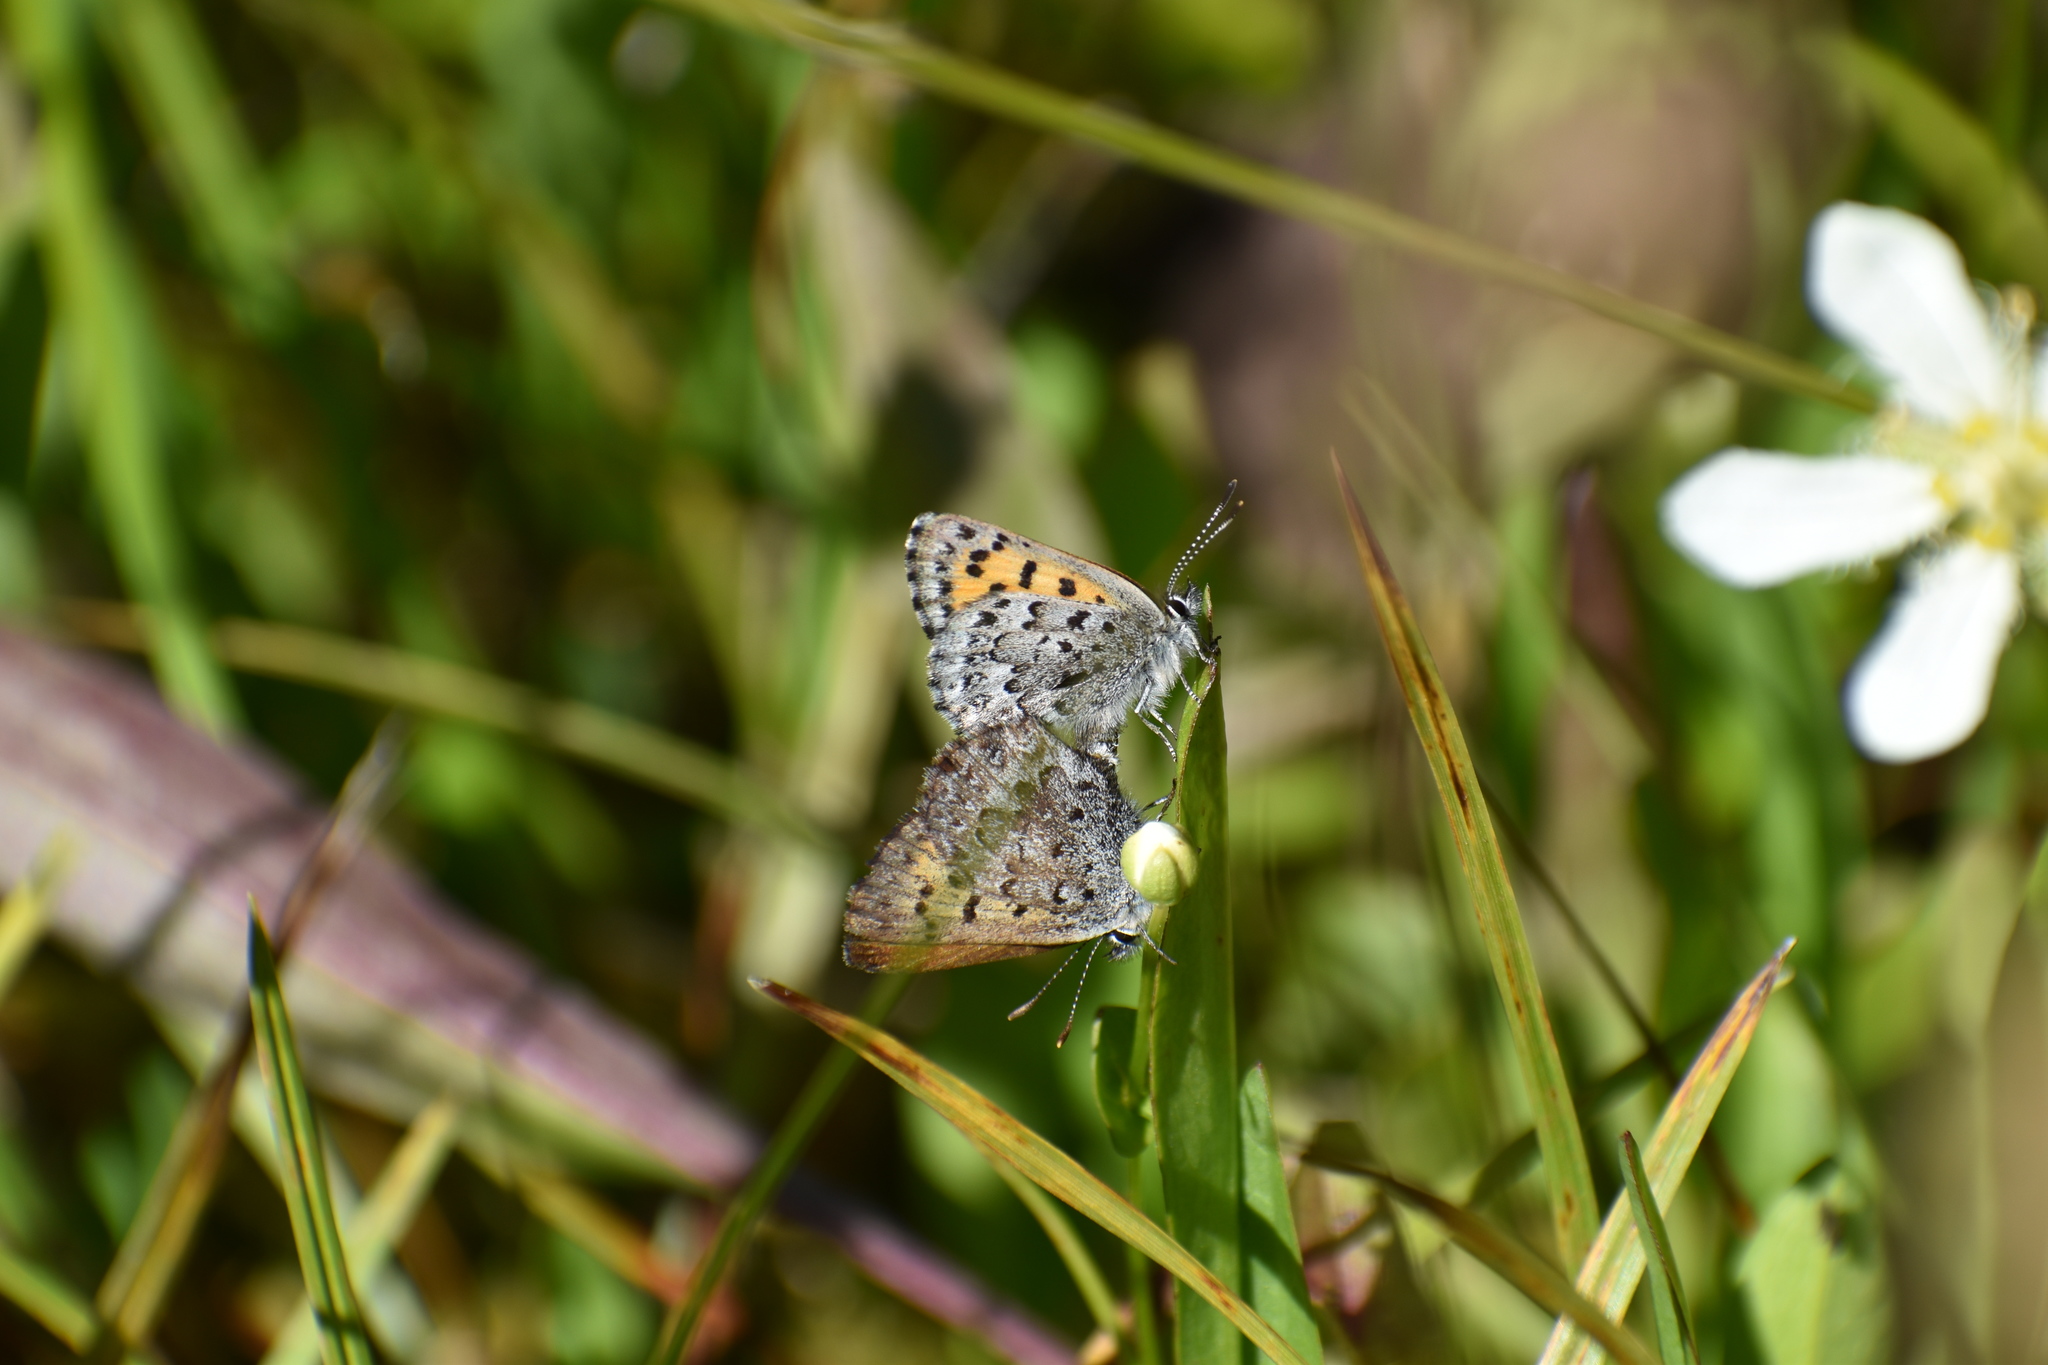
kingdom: Animalia
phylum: Arthropoda
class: Insecta
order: Lepidoptera
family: Lycaenidae
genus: Tharsalea
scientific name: Tharsalea mariposa
